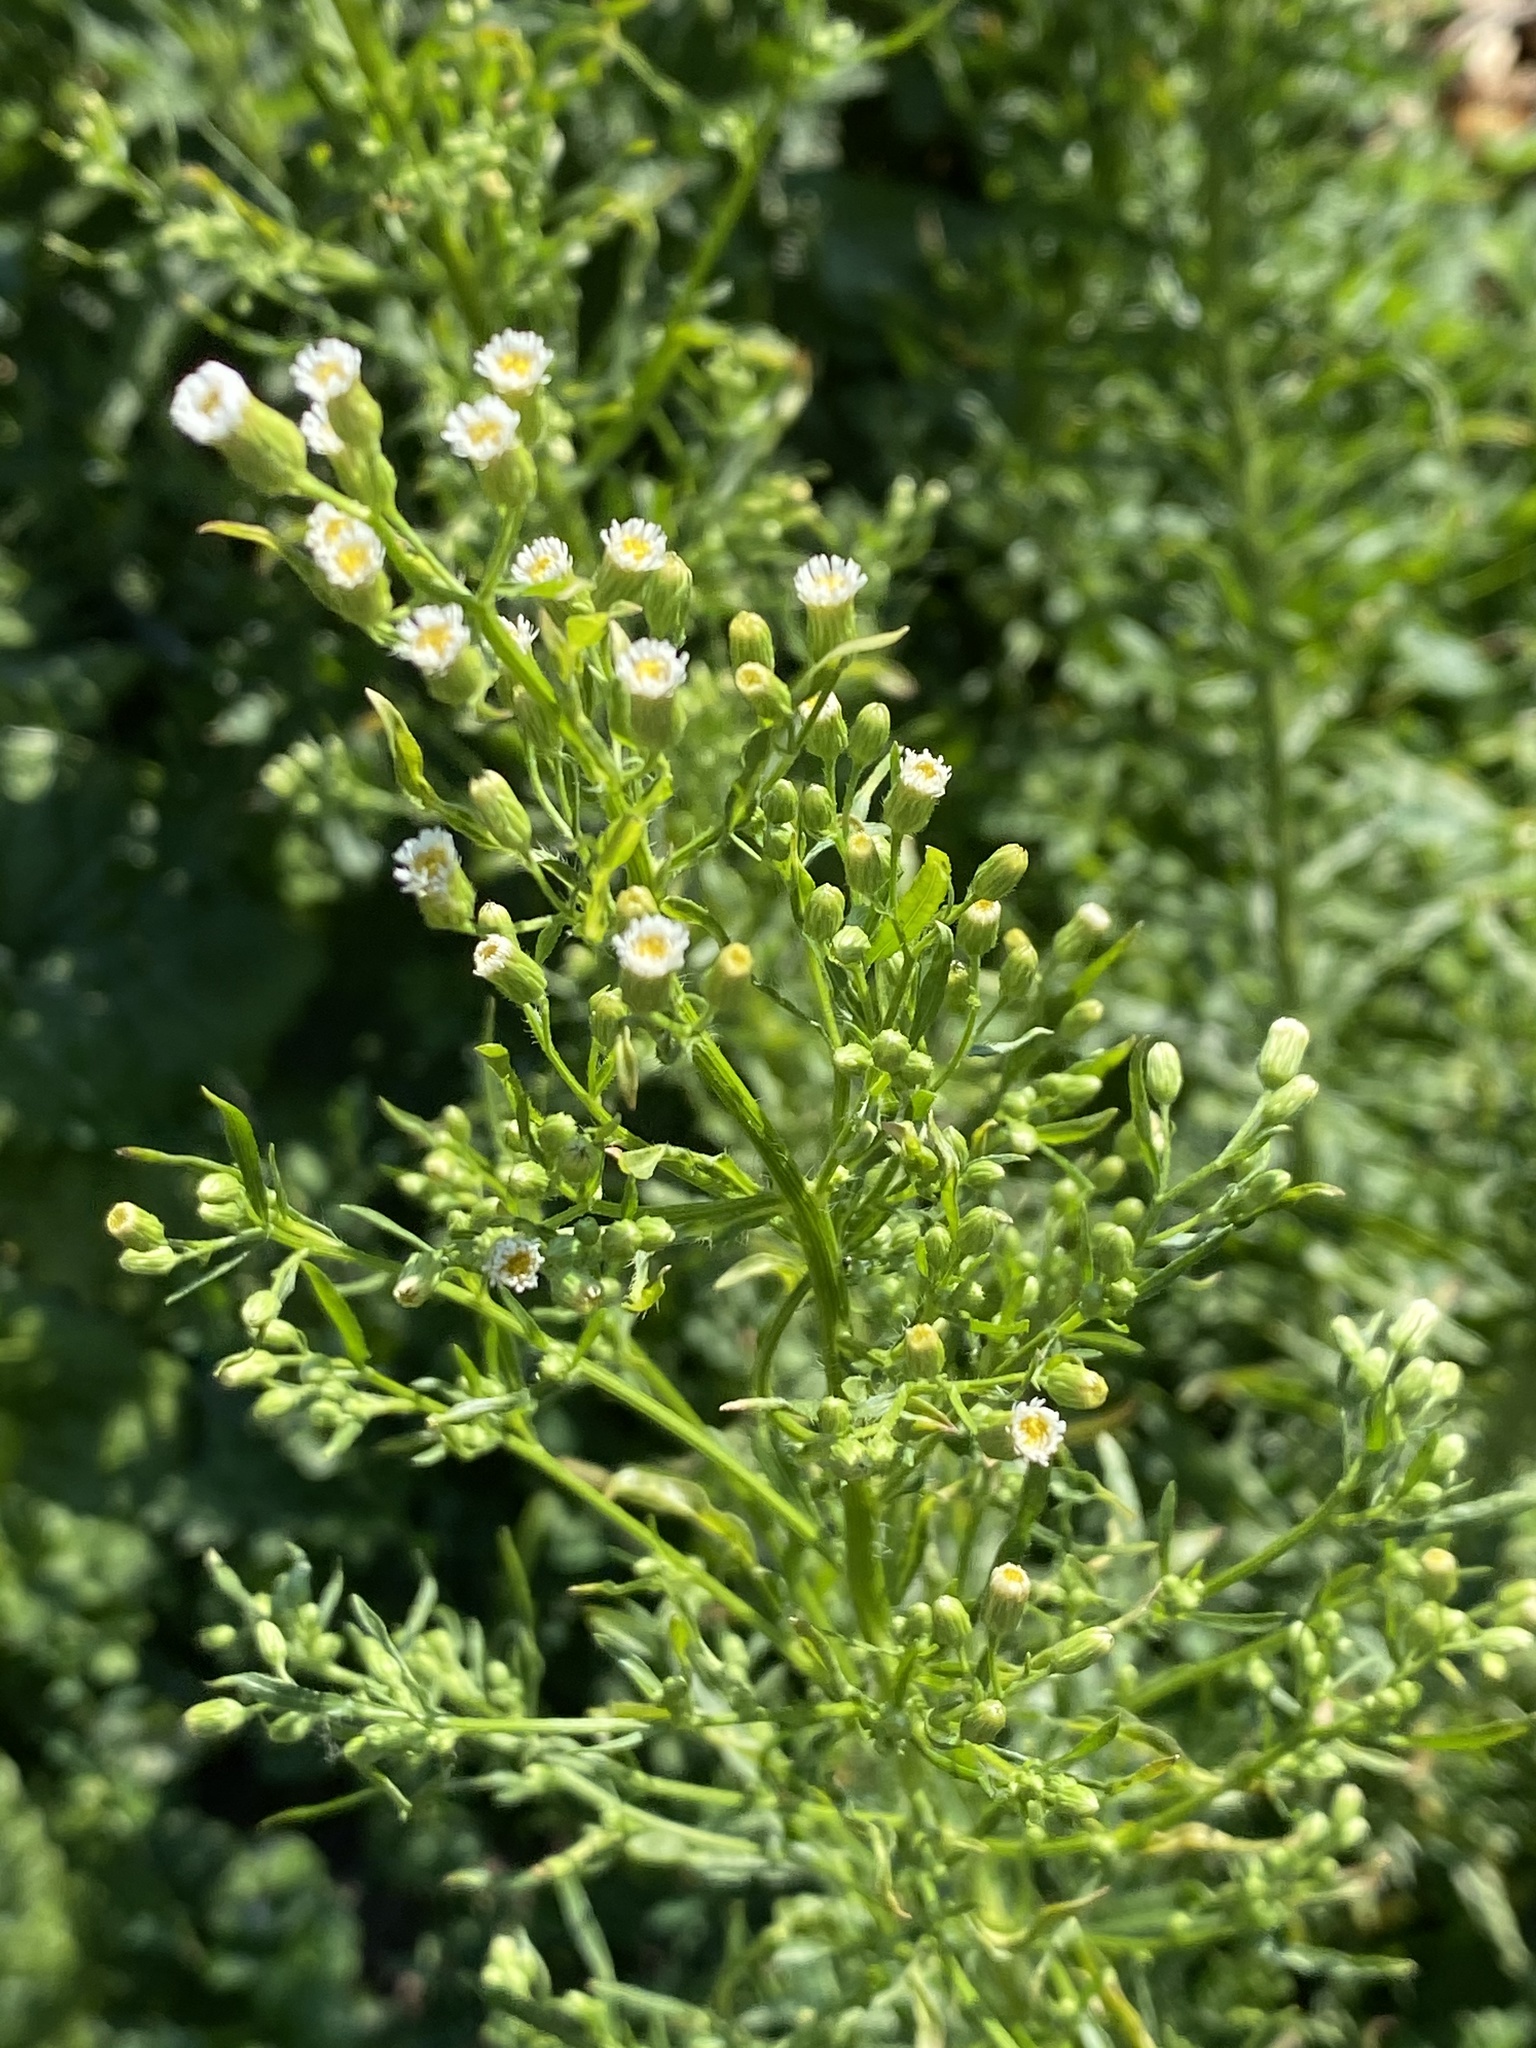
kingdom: Plantae
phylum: Tracheophyta
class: Magnoliopsida
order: Asterales
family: Asteraceae
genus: Erigeron
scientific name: Erigeron canadensis
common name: Canadian fleabane
